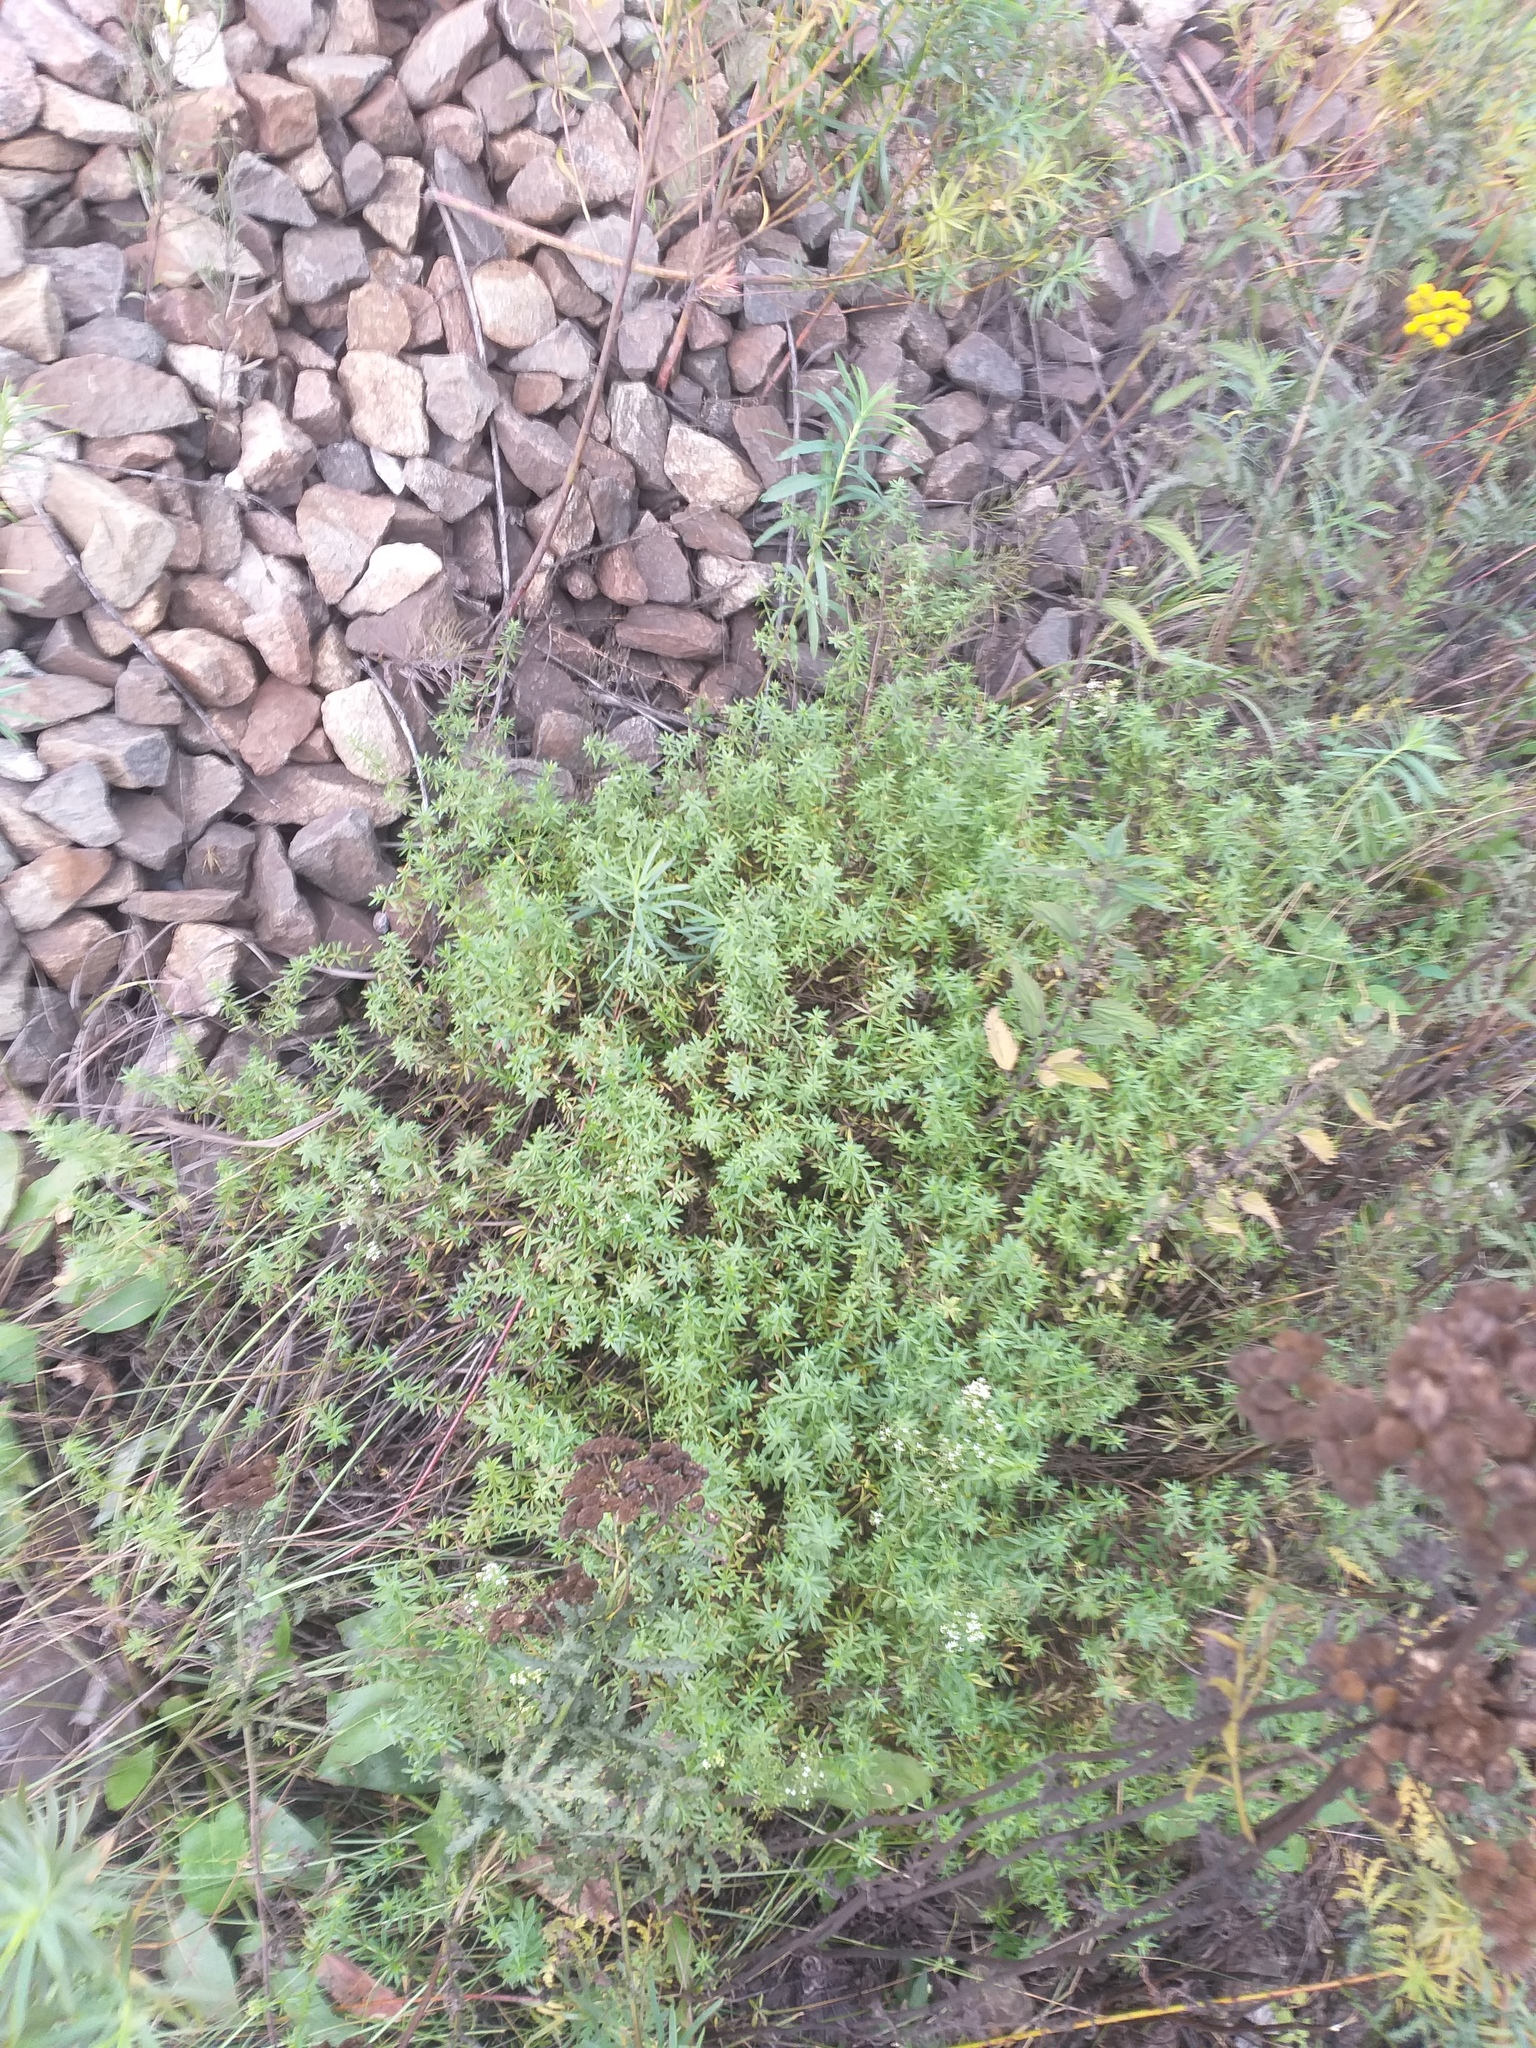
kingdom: Plantae
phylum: Tracheophyta
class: Magnoliopsida
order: Gentianales
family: Rubiaceae
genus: Galium
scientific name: Galium mollugo
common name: Hedge bedstraw
